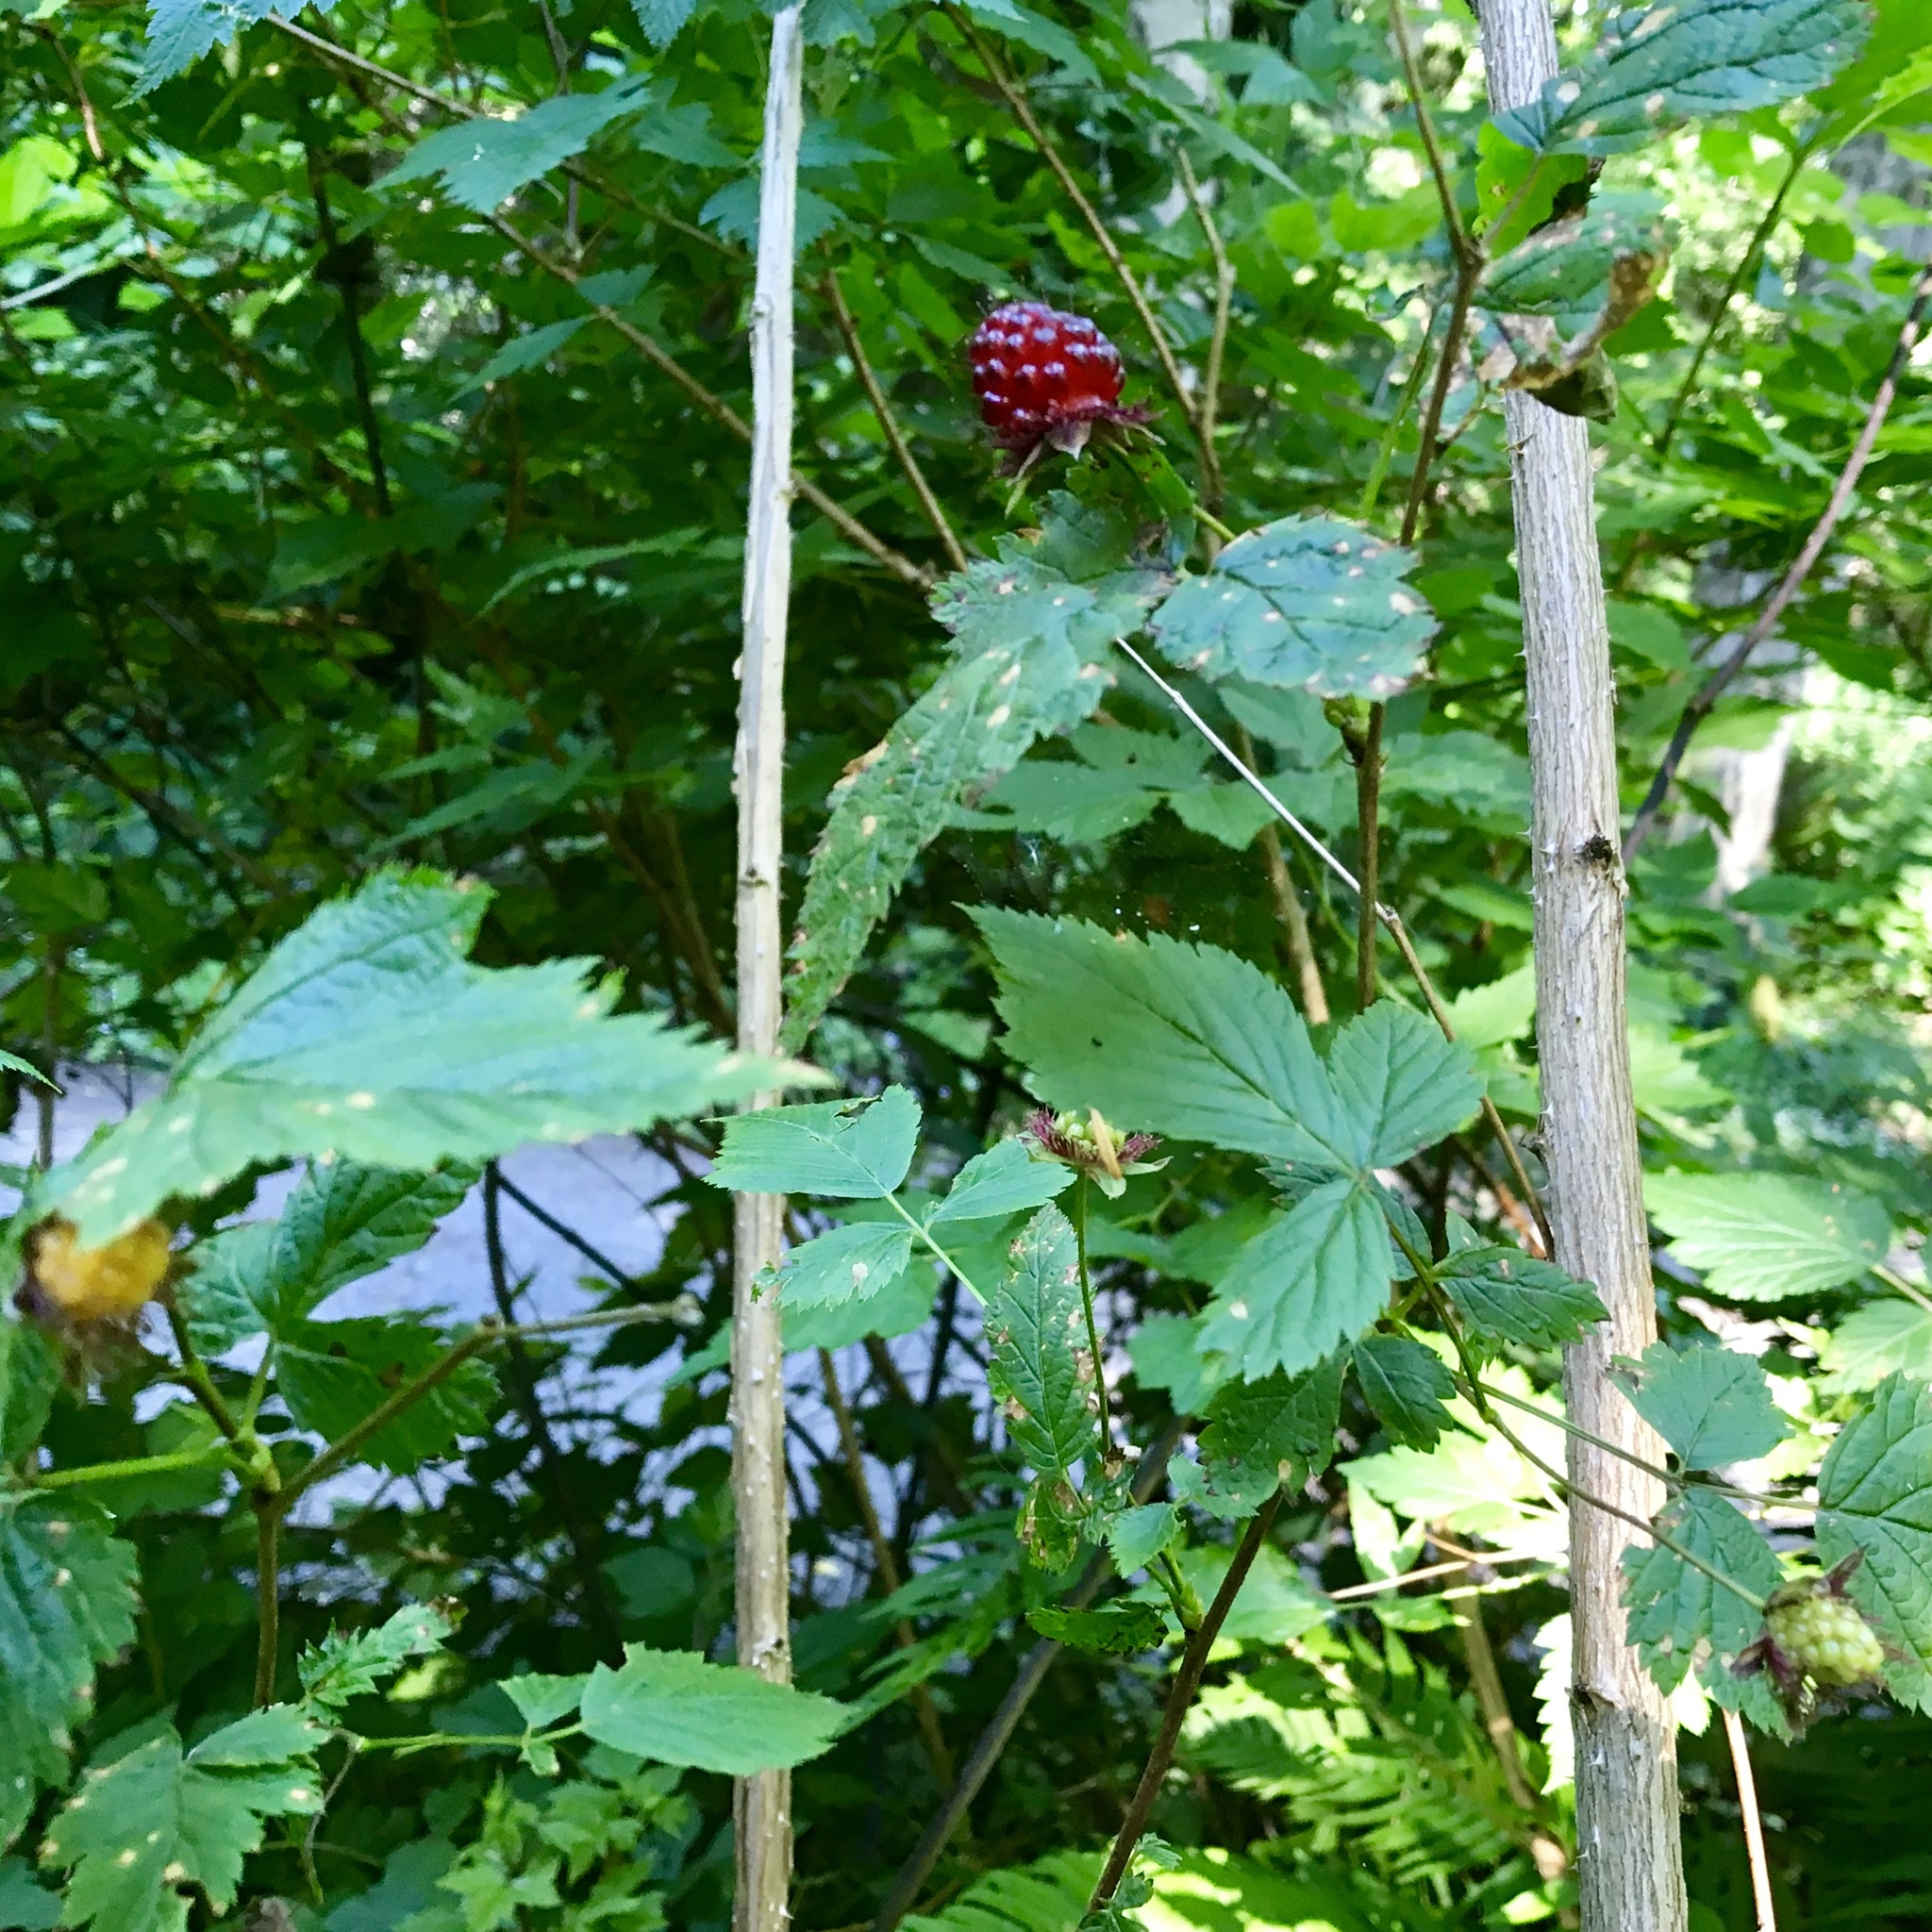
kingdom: Plantae
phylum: Tracheophyta
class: Magnoliopsida
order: Rosales
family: Rosaceae
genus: Rubus
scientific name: Rubus spectabilis
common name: Salmonberry
